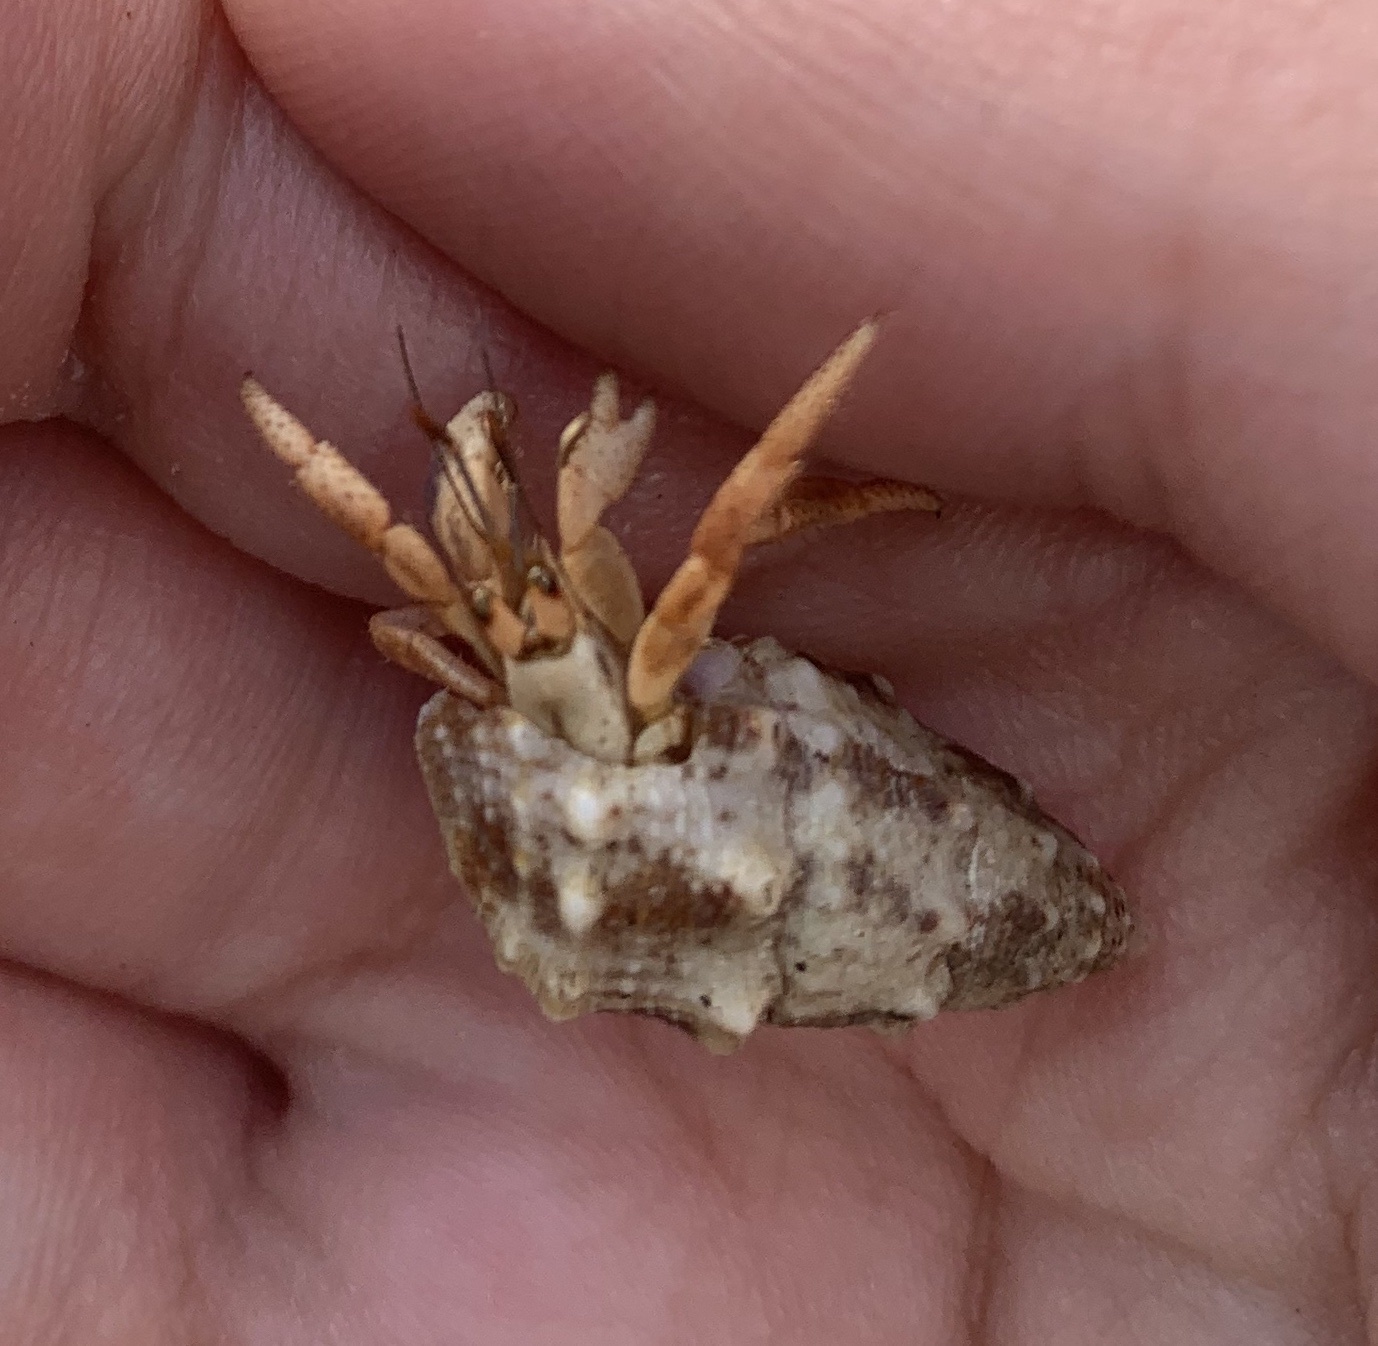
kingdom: Animalia
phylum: Arthropoda
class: Malacostraca
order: Decapoda
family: Coenobitidae
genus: Coenobita
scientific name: Coenobita clypeatus
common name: Caribbean hermit crab
